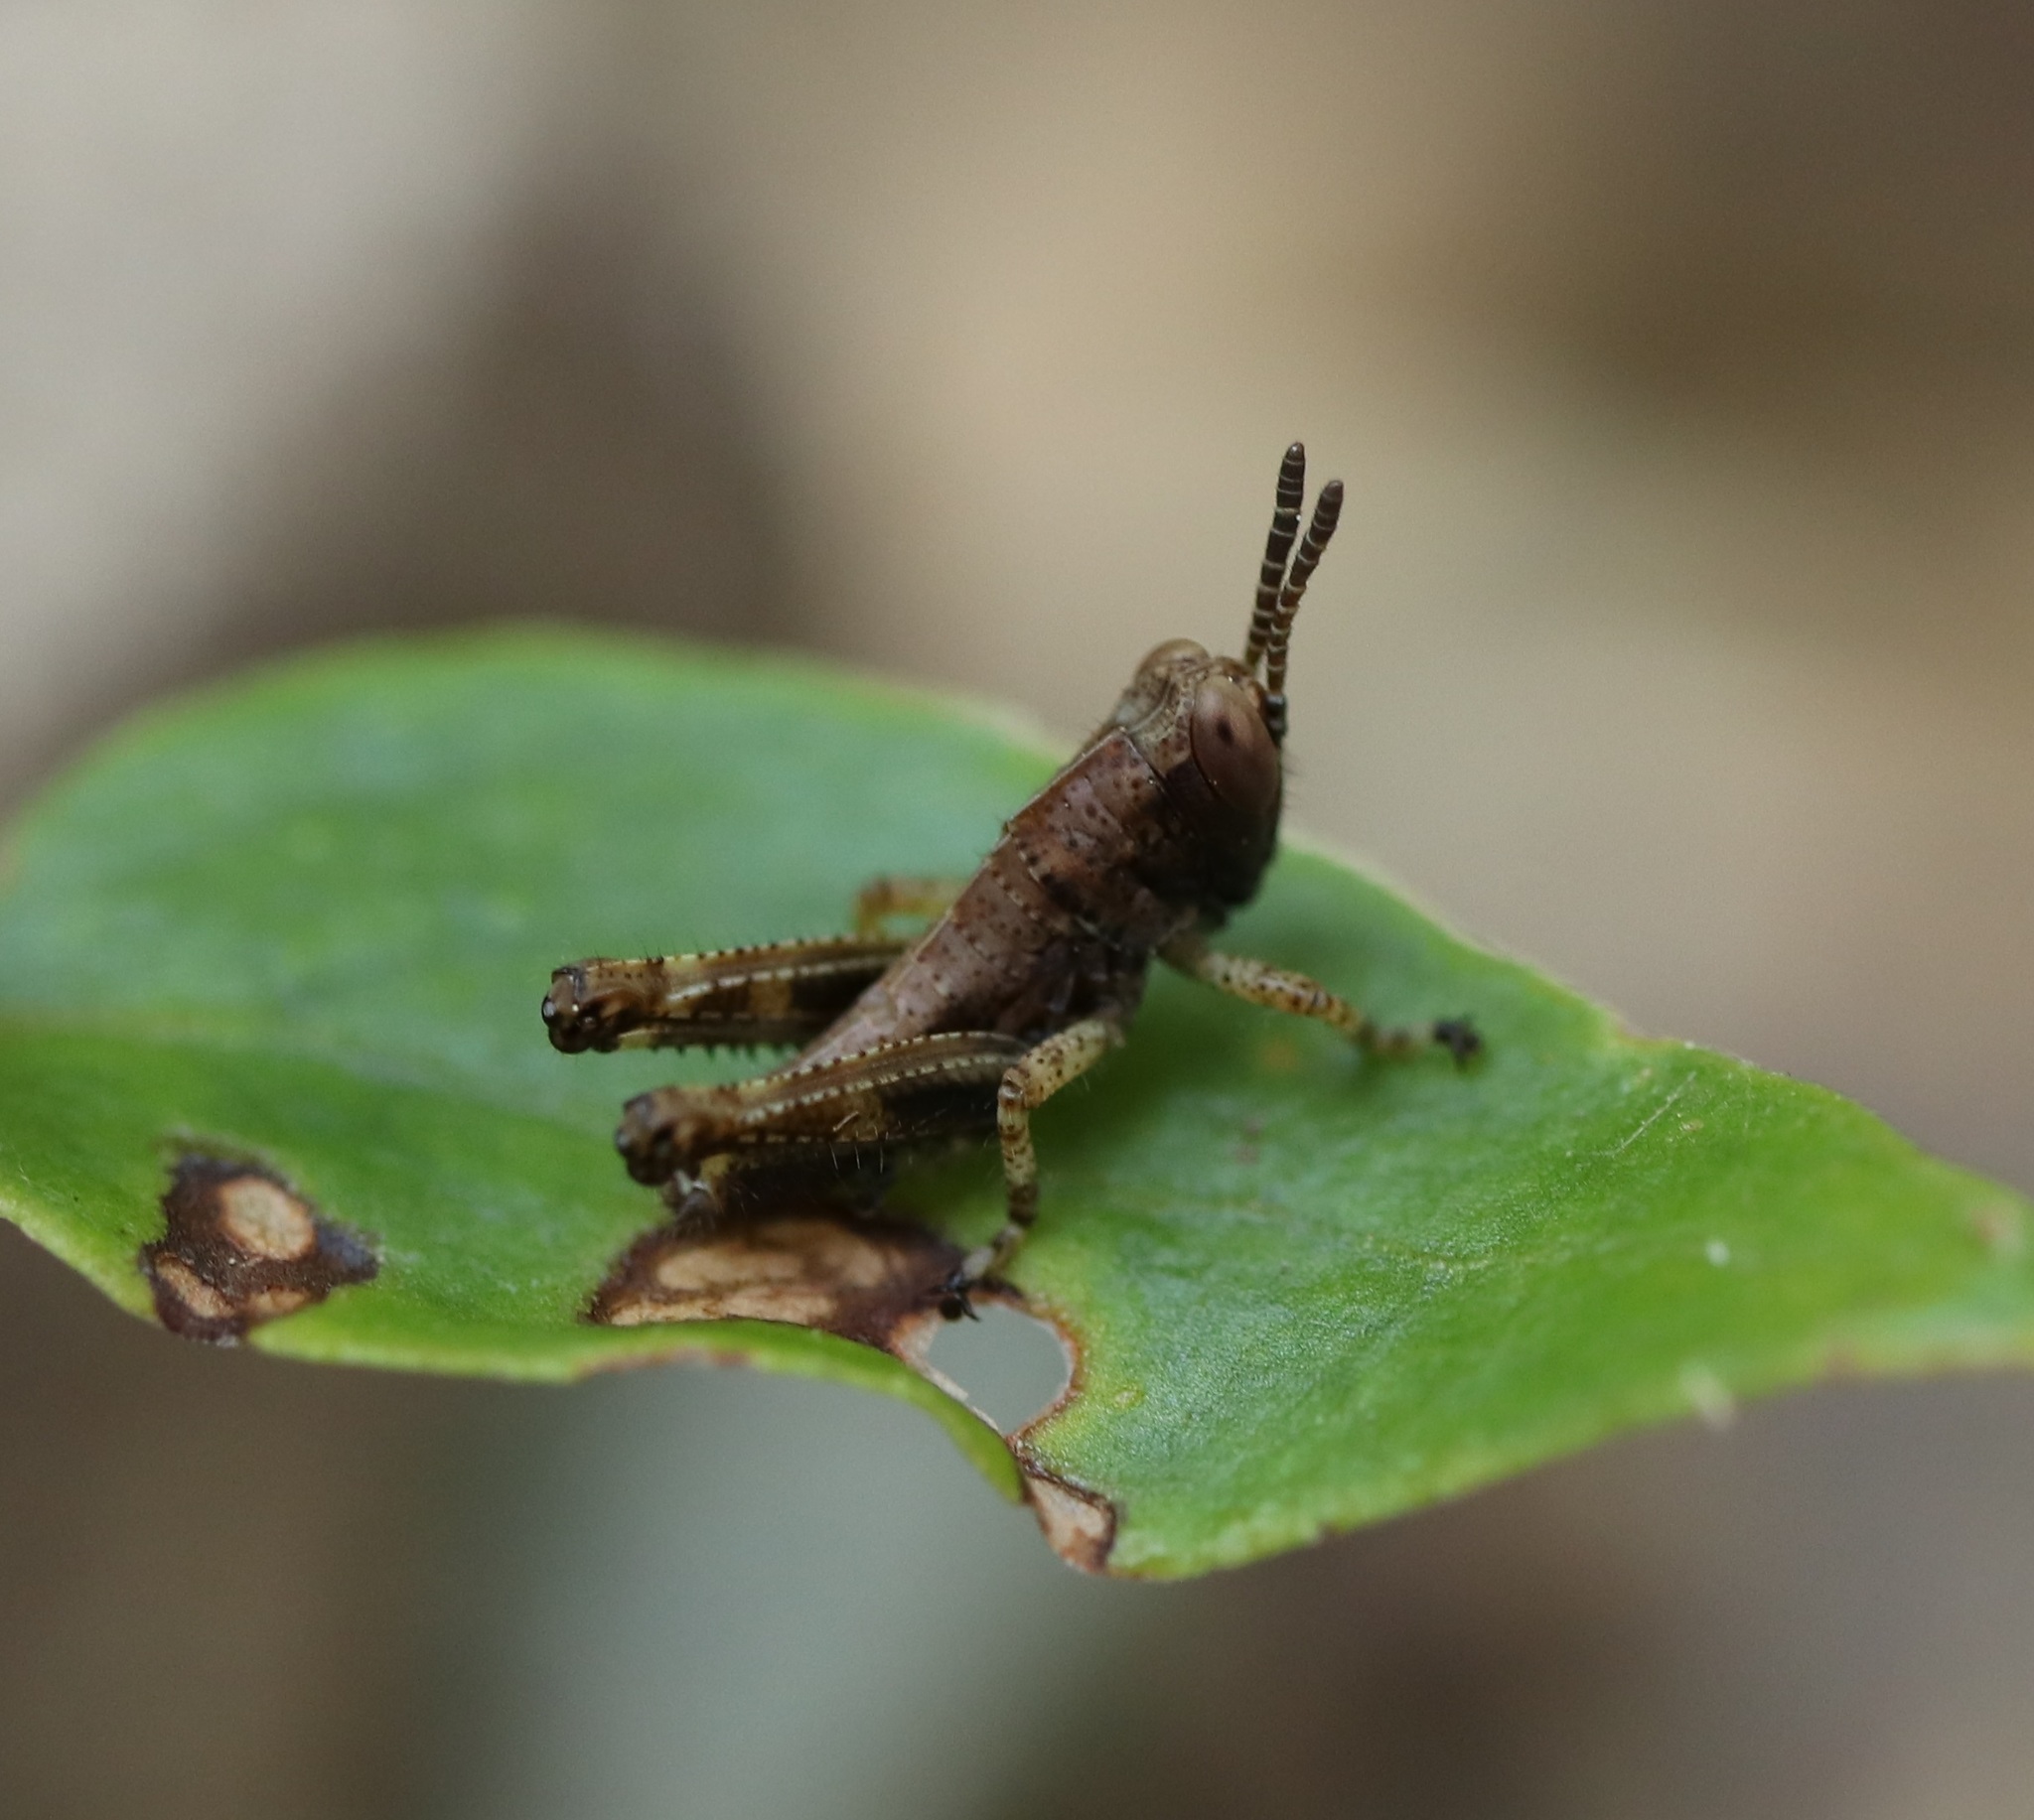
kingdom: Animalia
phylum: Arthropoda
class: Insecta
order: Orthoptera
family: Acrididae
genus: Parapodisma
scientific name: Parapodisma tenryuensis
